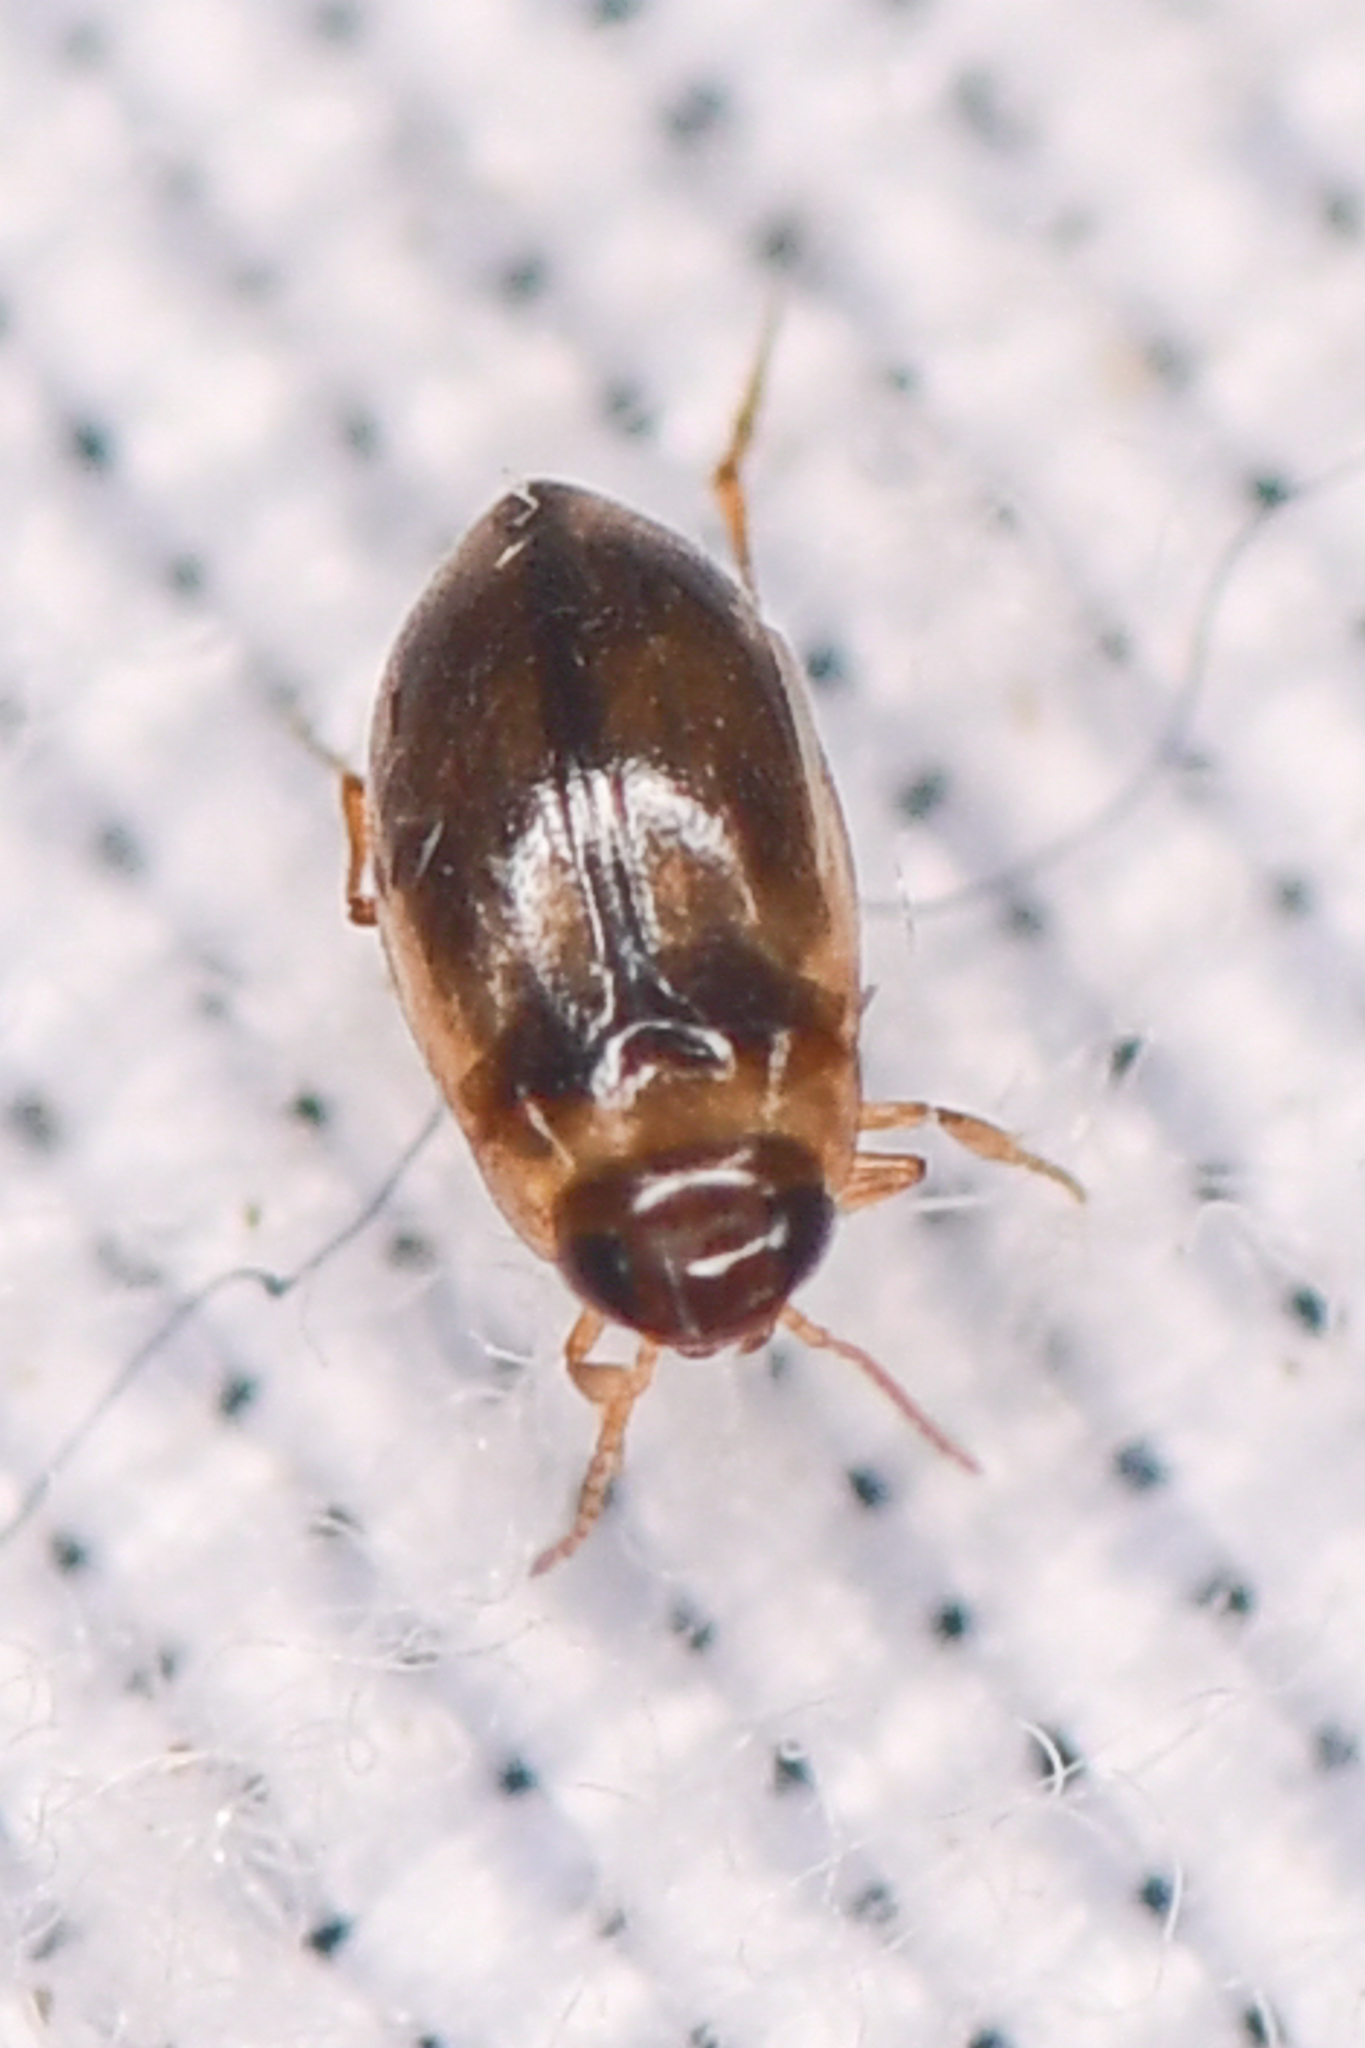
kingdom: Animalia
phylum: Arthropoda
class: Insecta
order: Coleoptera
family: Dytiscidae
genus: Bidessini
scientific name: Bidessini
